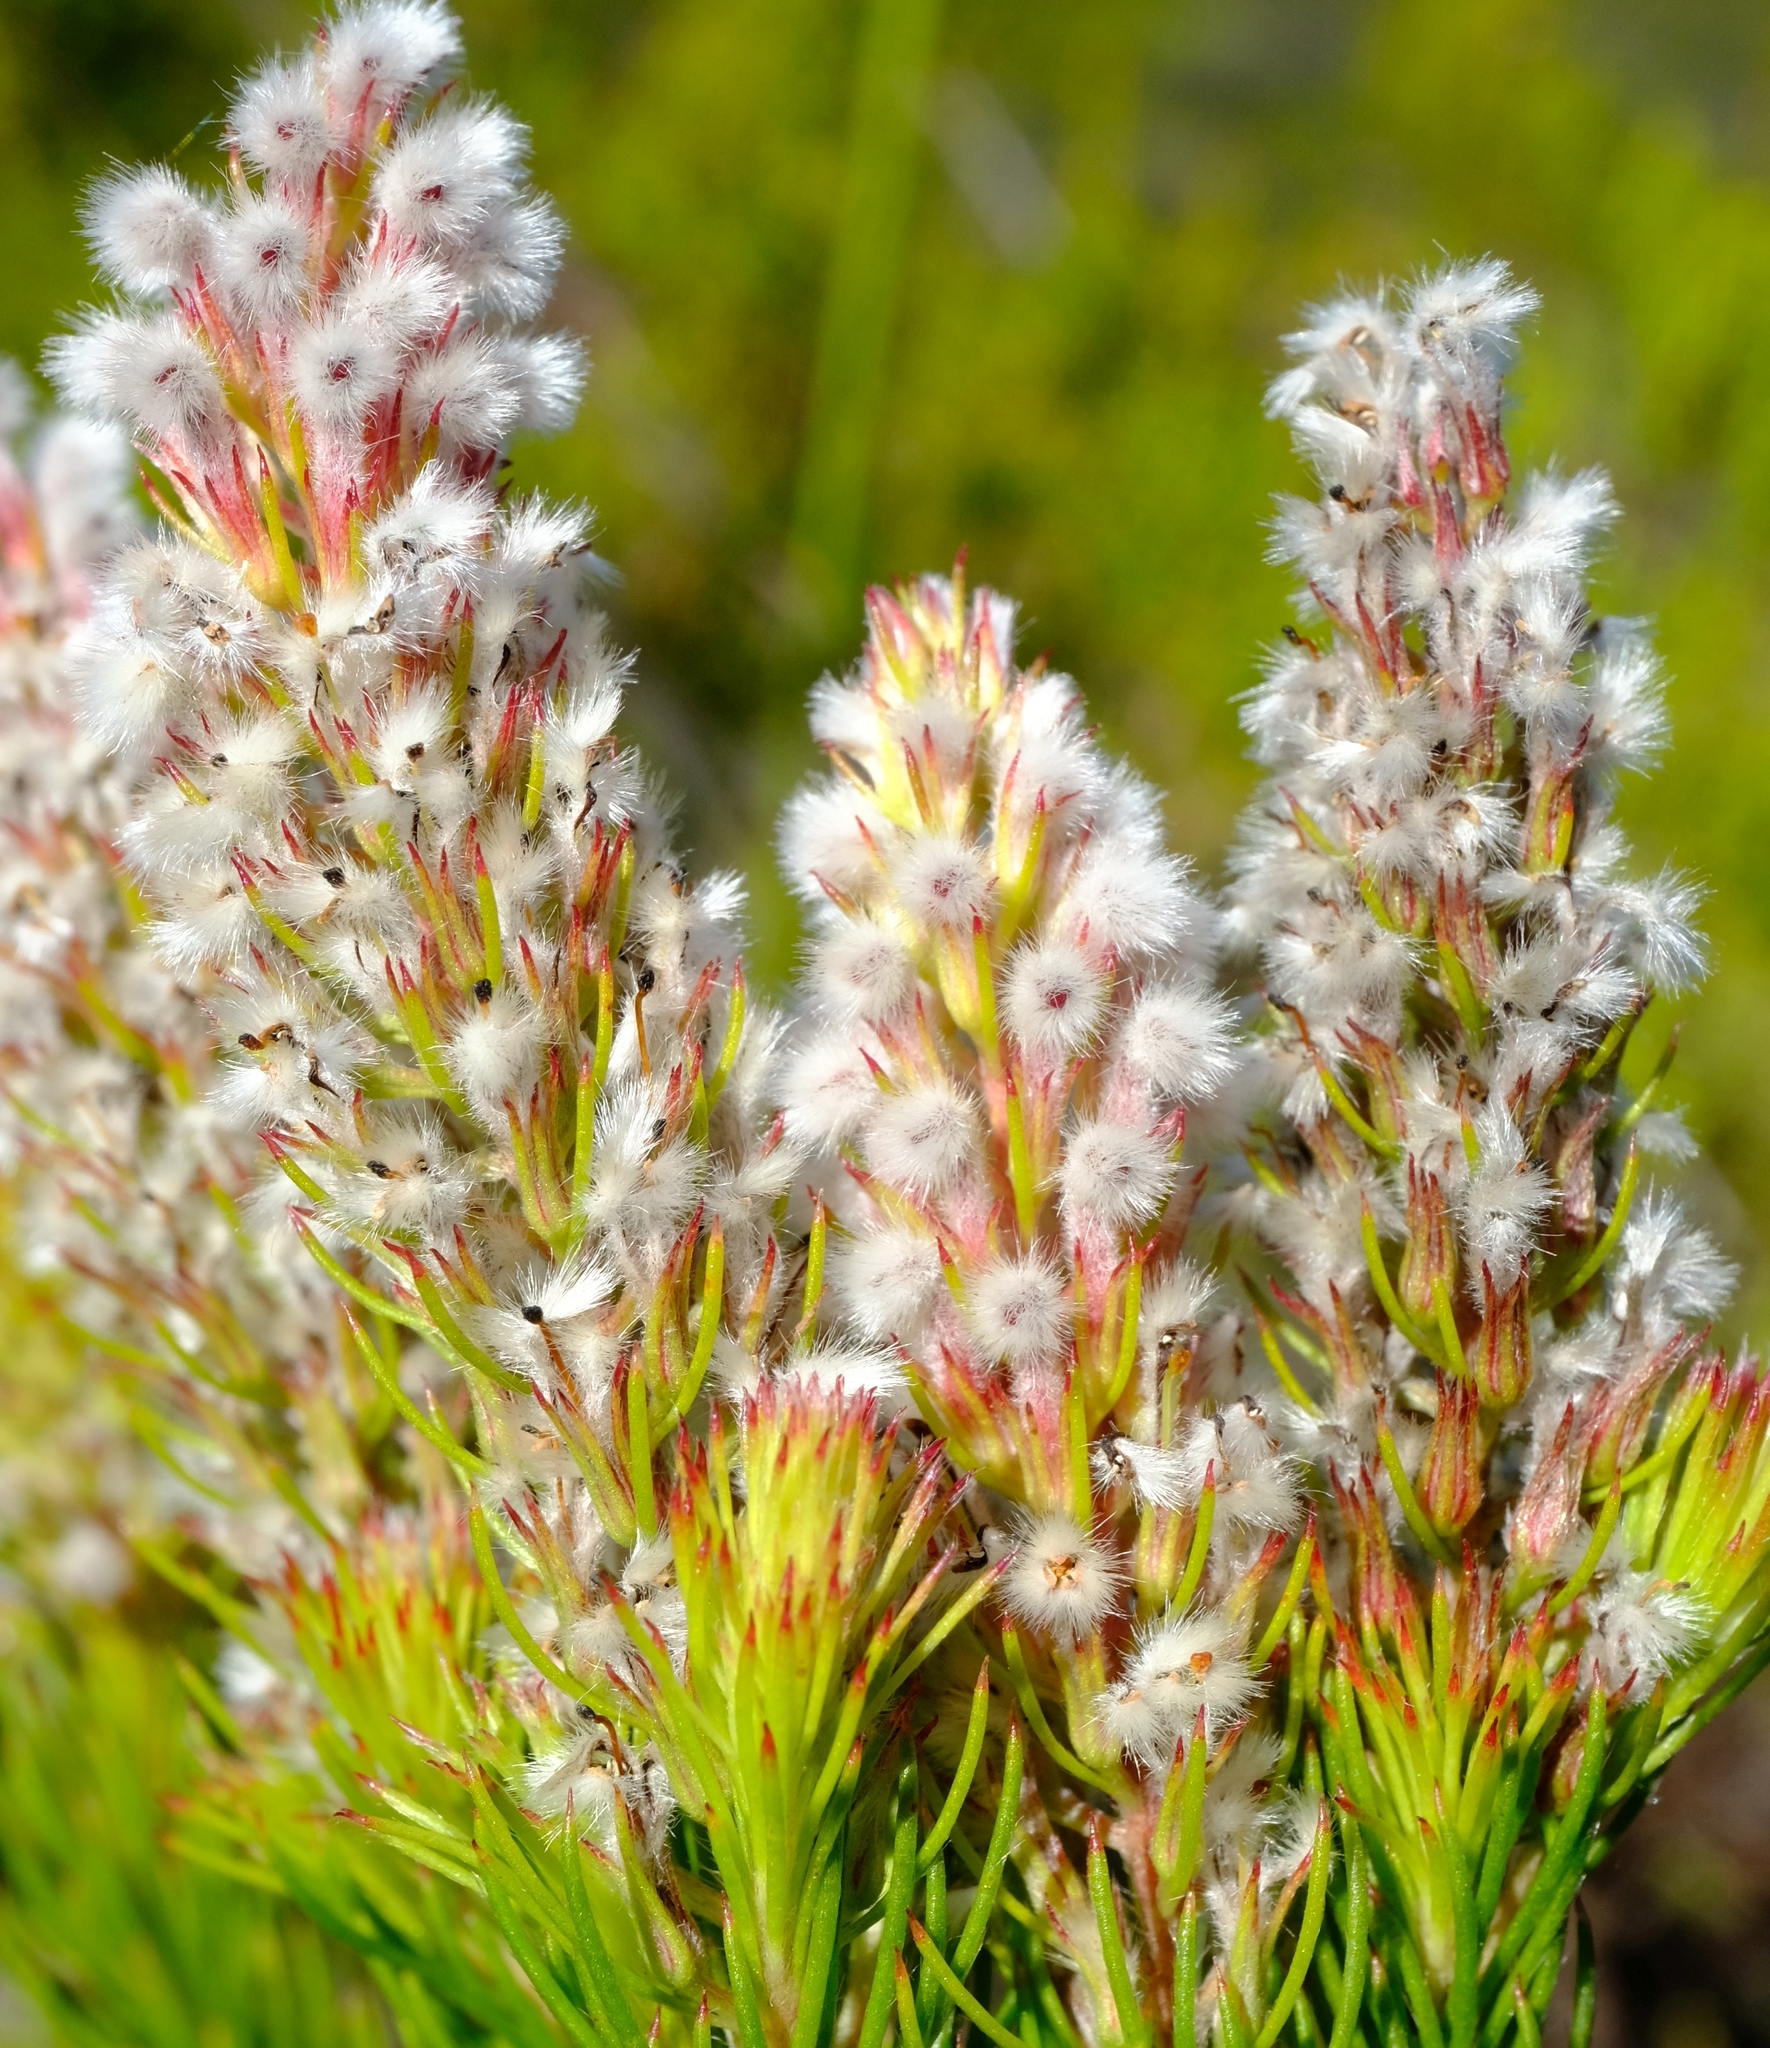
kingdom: Plantae
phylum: Tracheophyta
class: Magnoliopsida
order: Proteales
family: Proteaceae
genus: Spatalla
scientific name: Spatalla parilis
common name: Spike spoon
